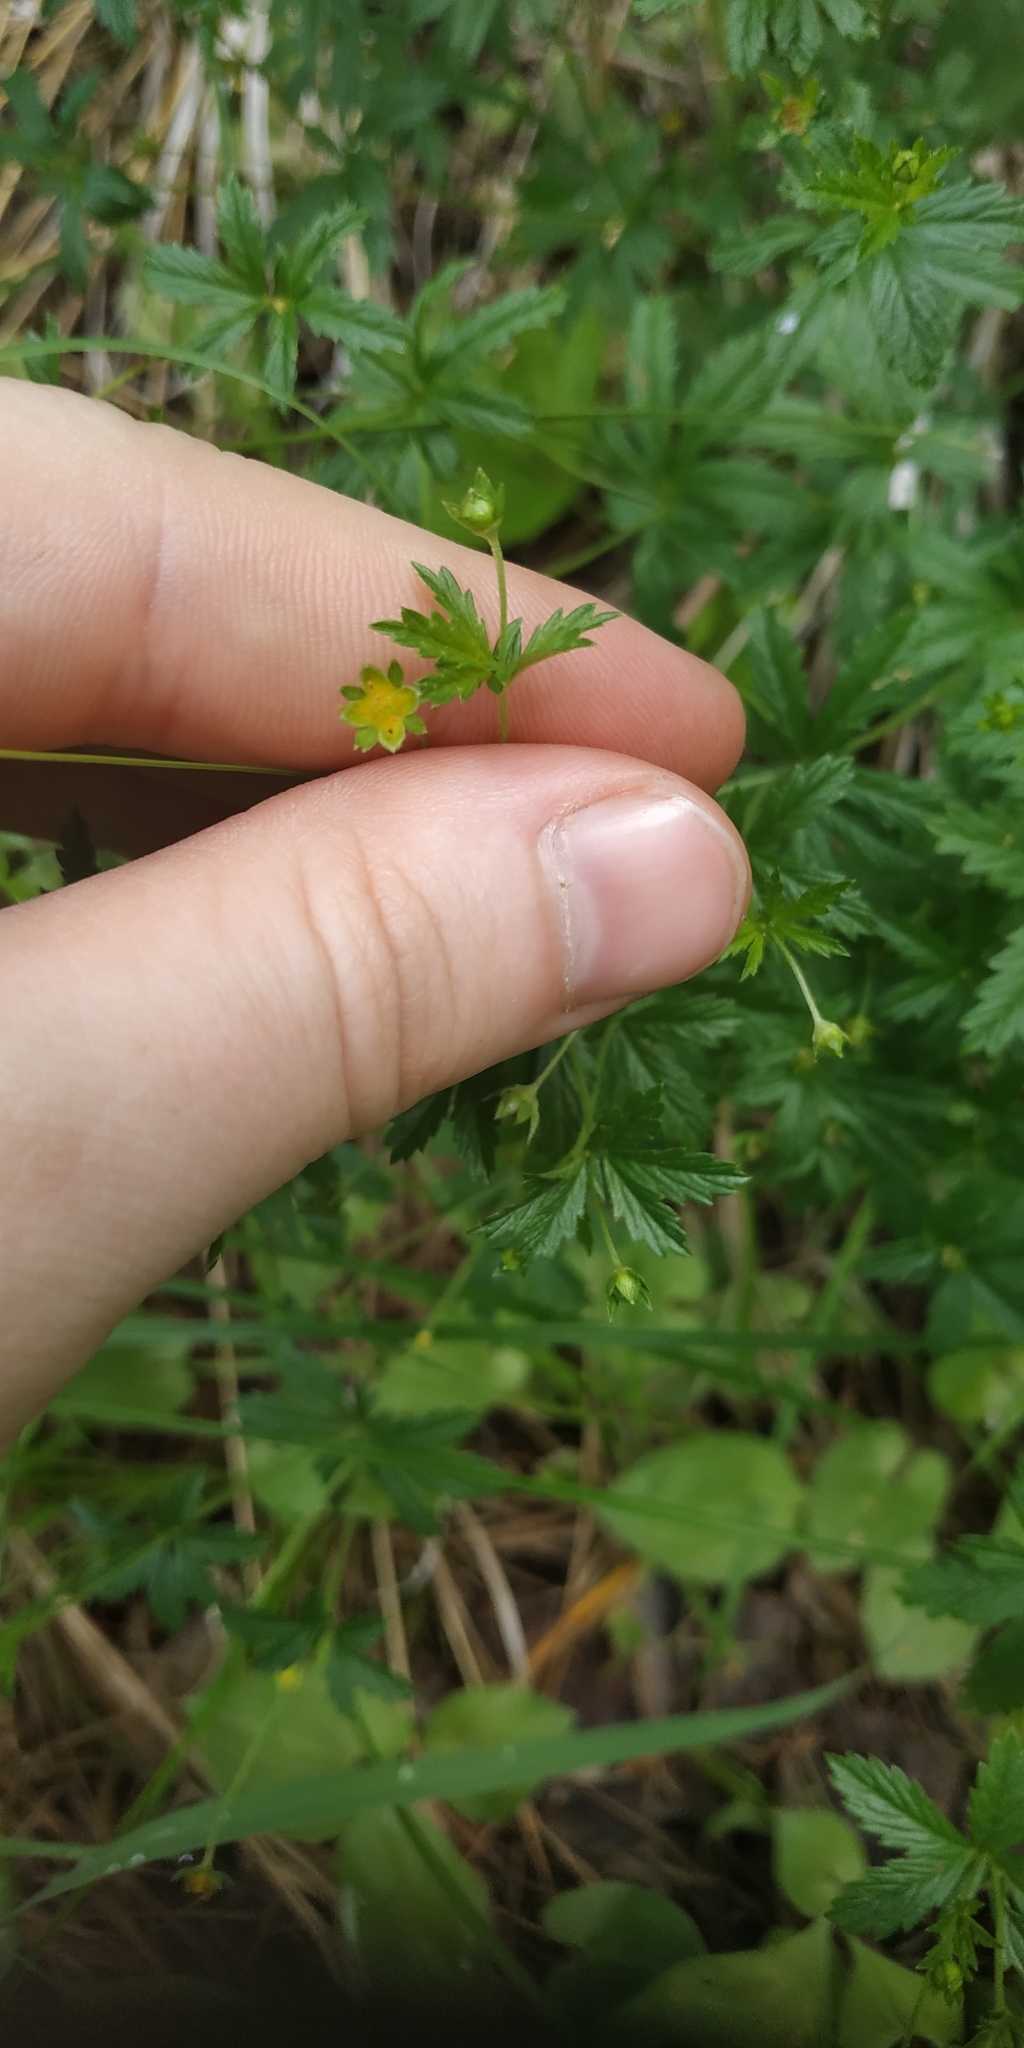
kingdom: Plantae
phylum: Tracheophyta
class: Magnoliopsida
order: Rosales
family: Rosaceae
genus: Potentilla
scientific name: Potentilla erecta
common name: Tormentil
